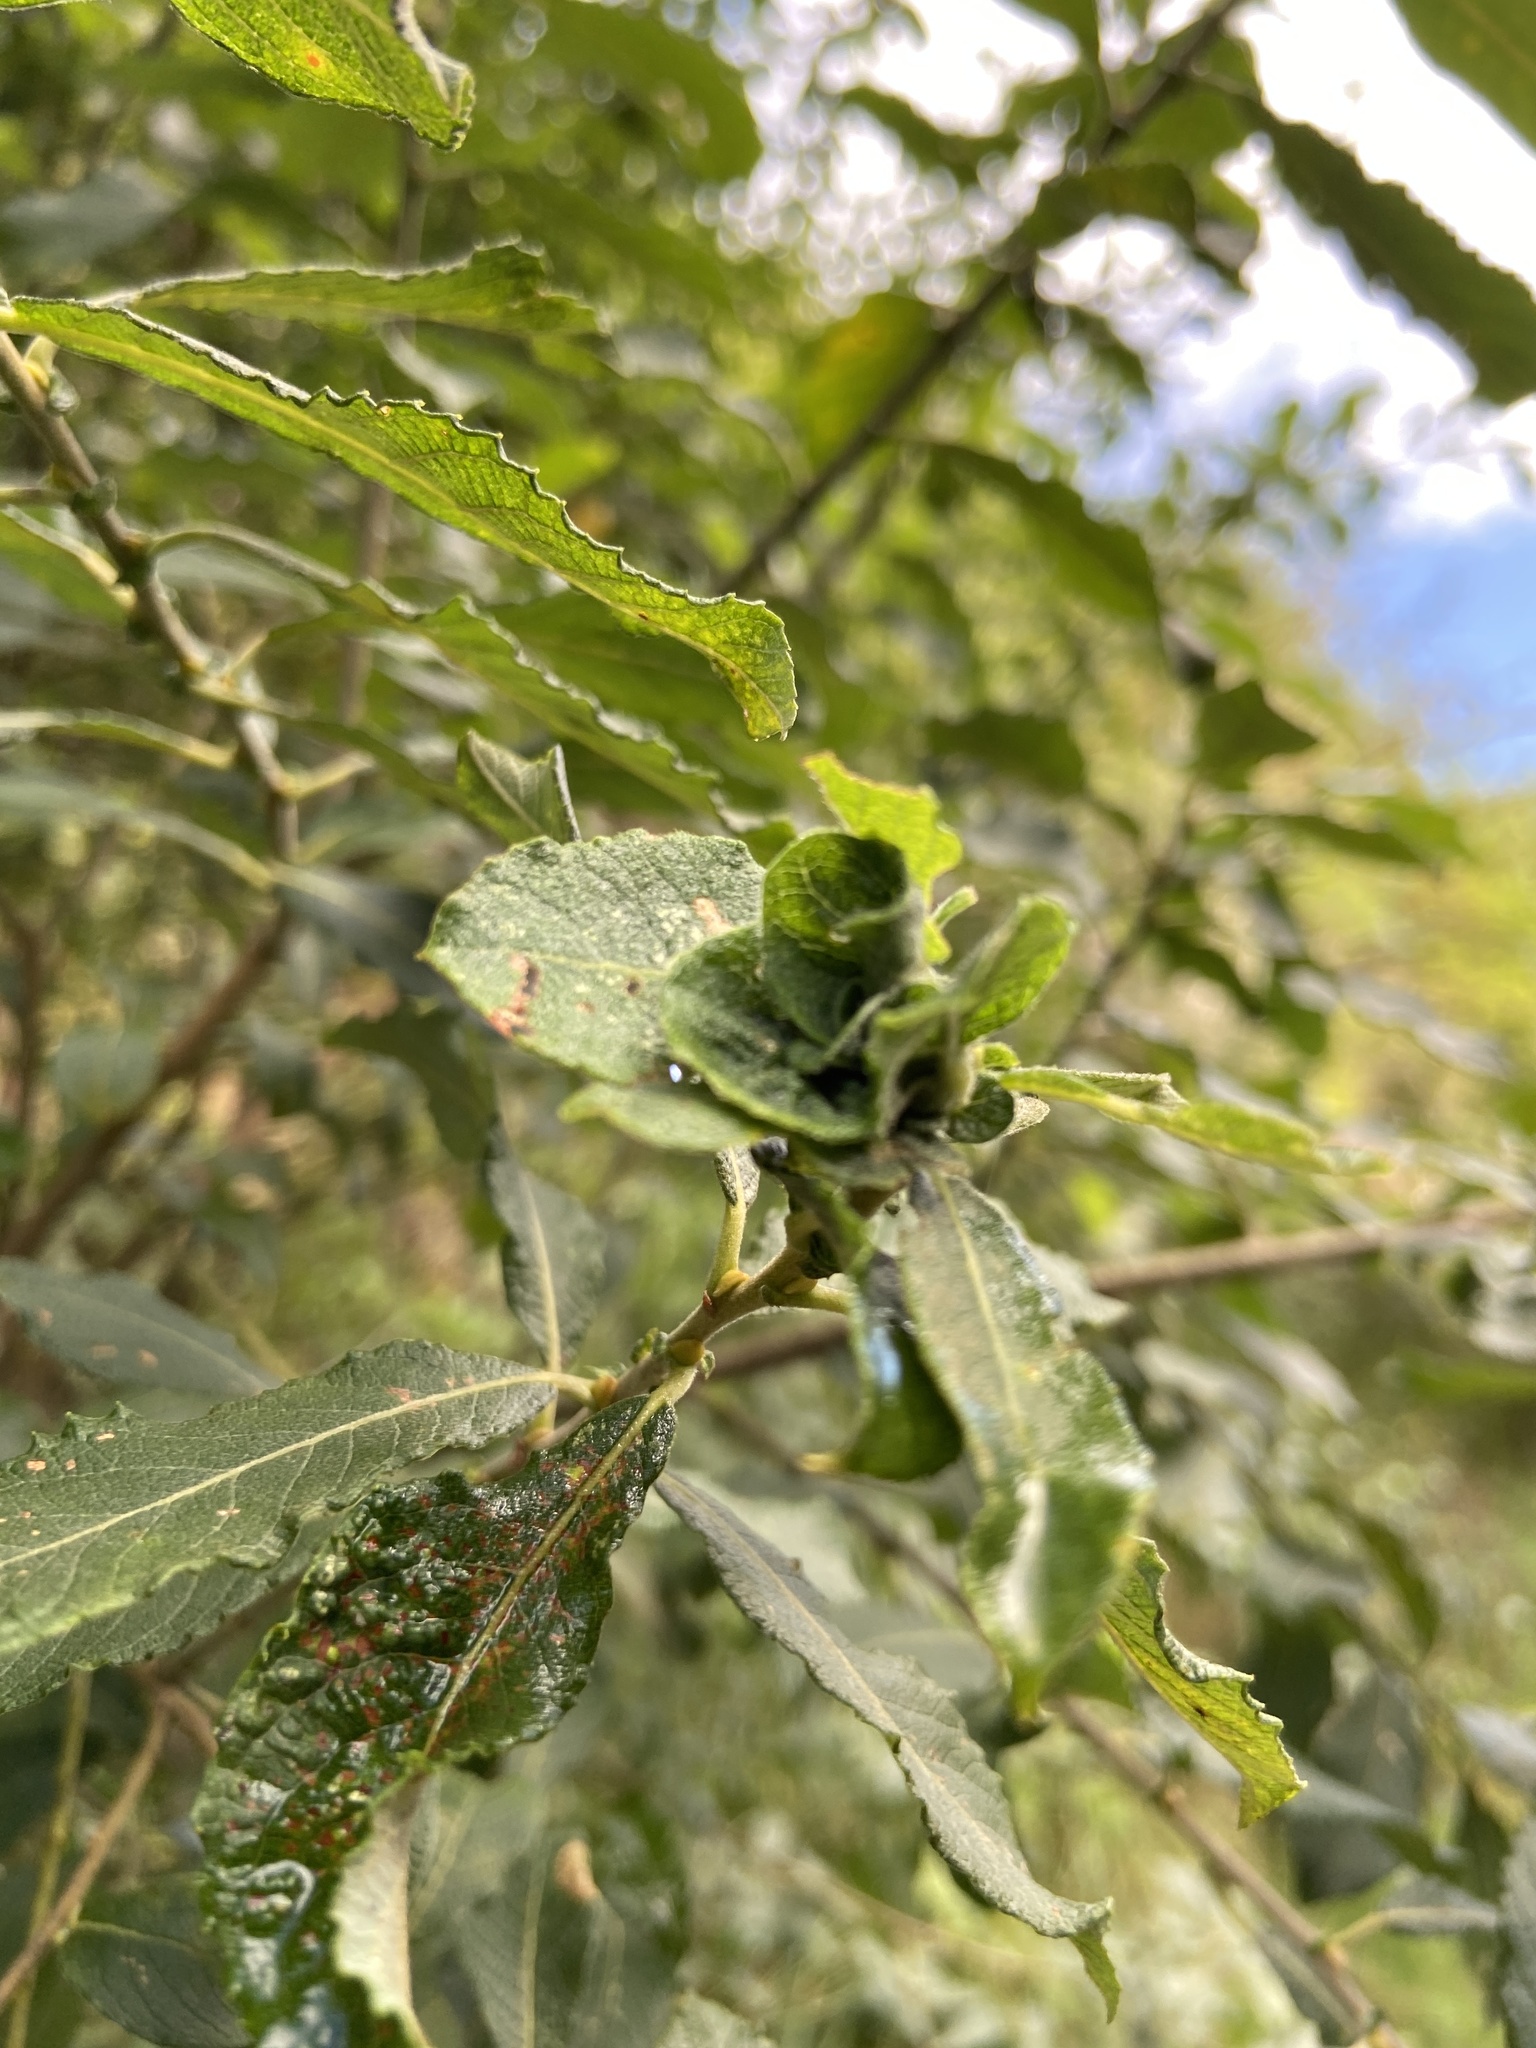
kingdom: Animalia
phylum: Arthropoda
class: Insecta
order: Diptera
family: Cecidomyiidae
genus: Rabdophaga
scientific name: Rabdophaga rosaria
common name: Willow rose gall midge
